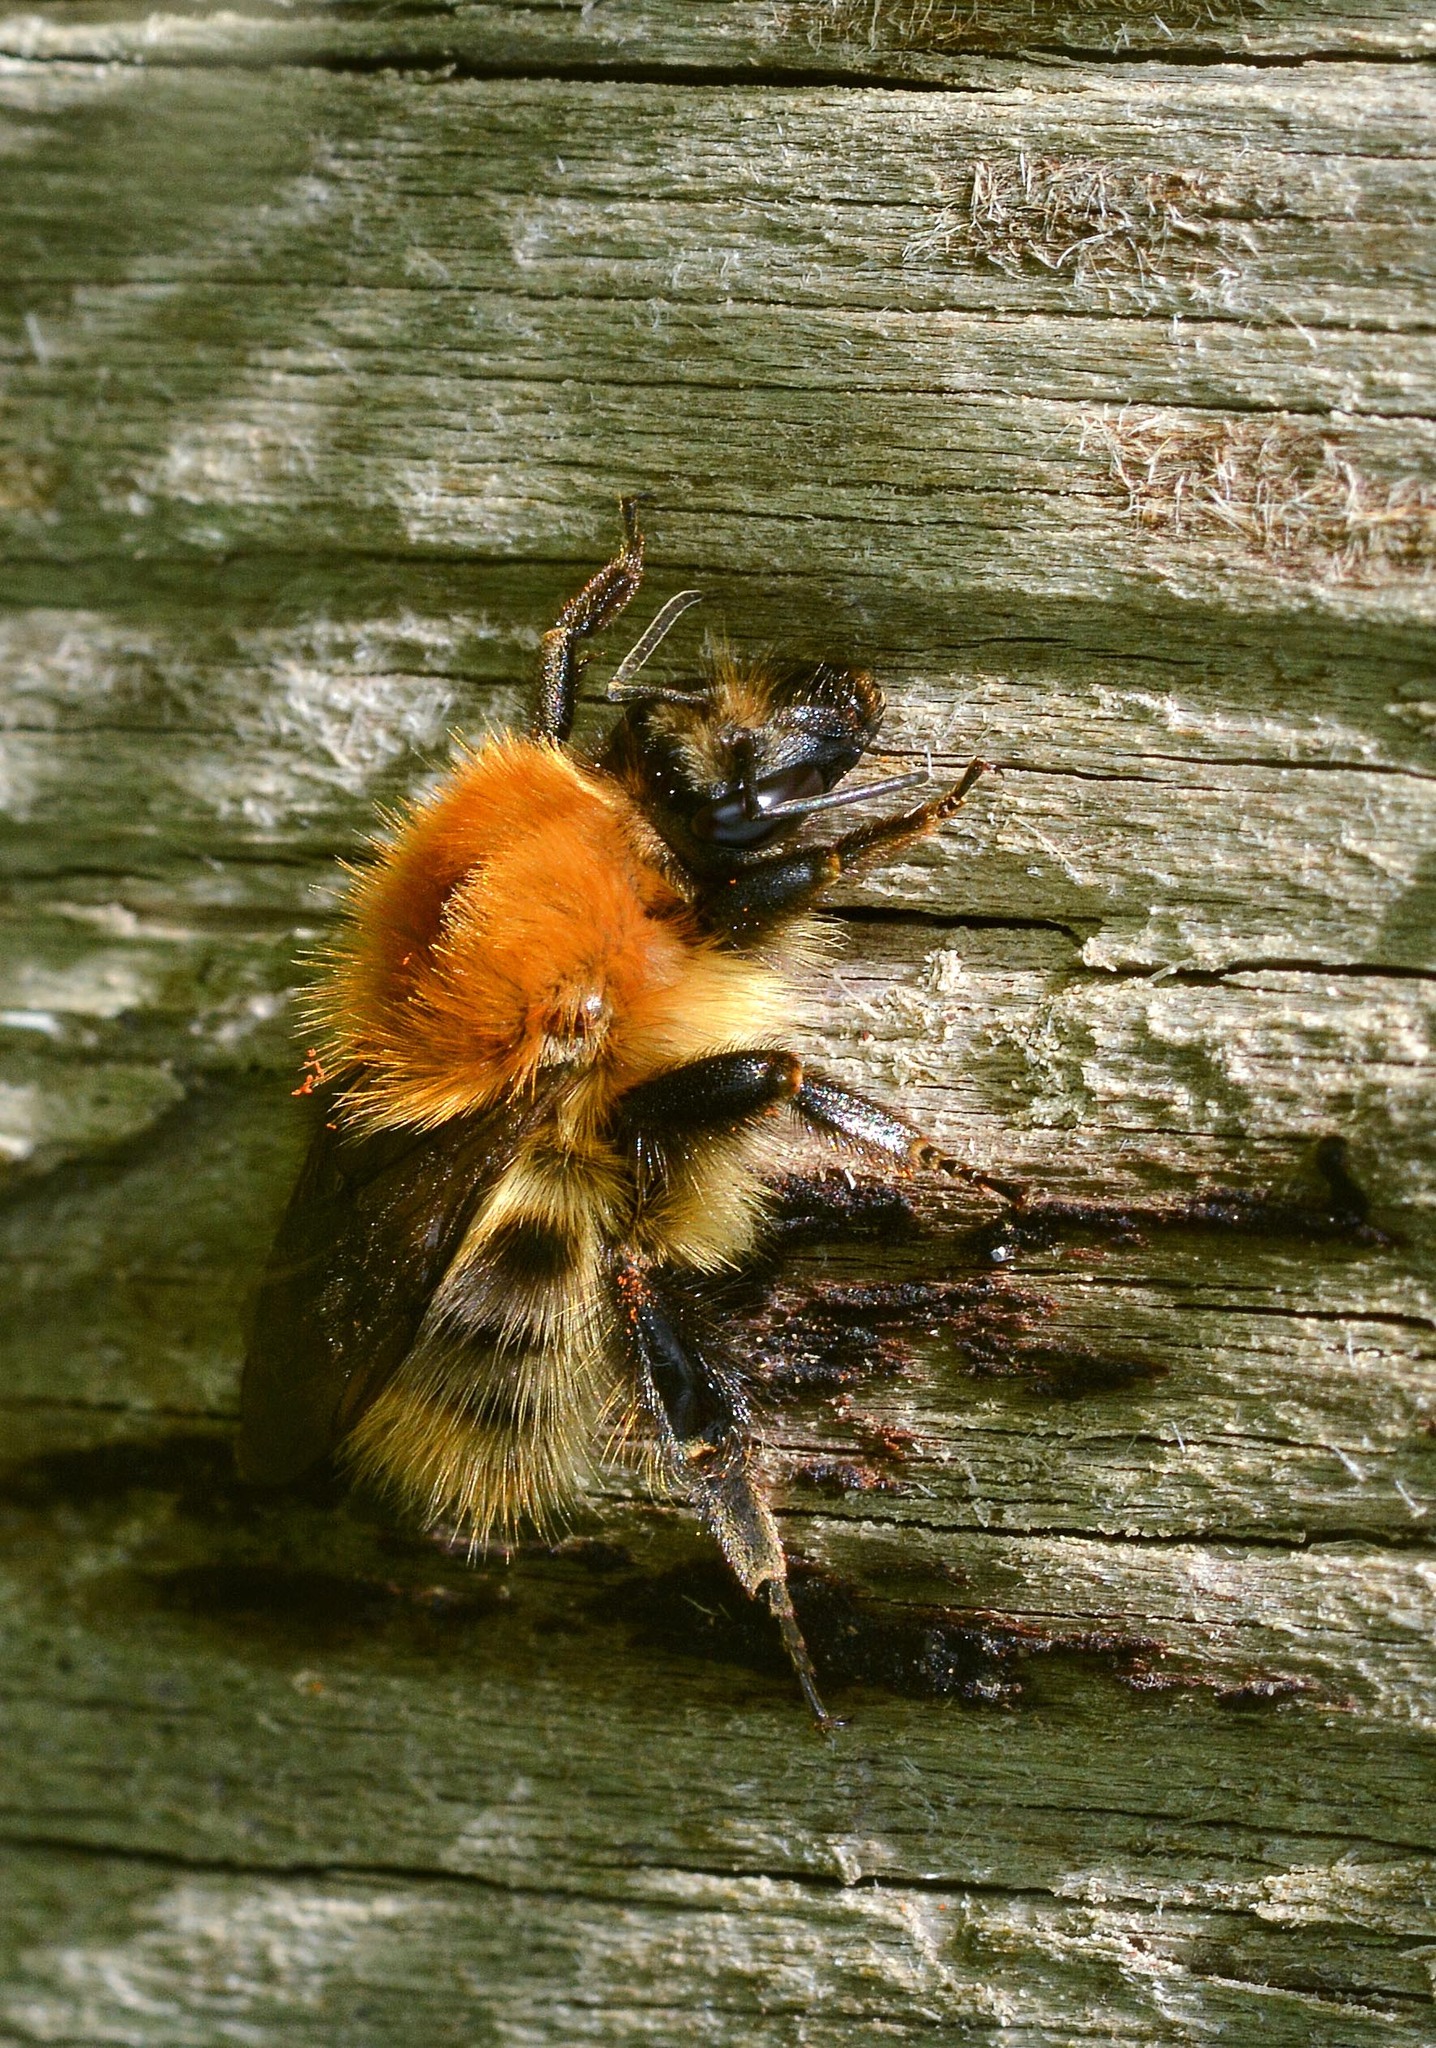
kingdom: Animalia
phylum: Arthropoda
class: Insecta
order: Hymenoptera
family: Apidae
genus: Bombus
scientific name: Bombus pascuorum
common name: Common carder bee
